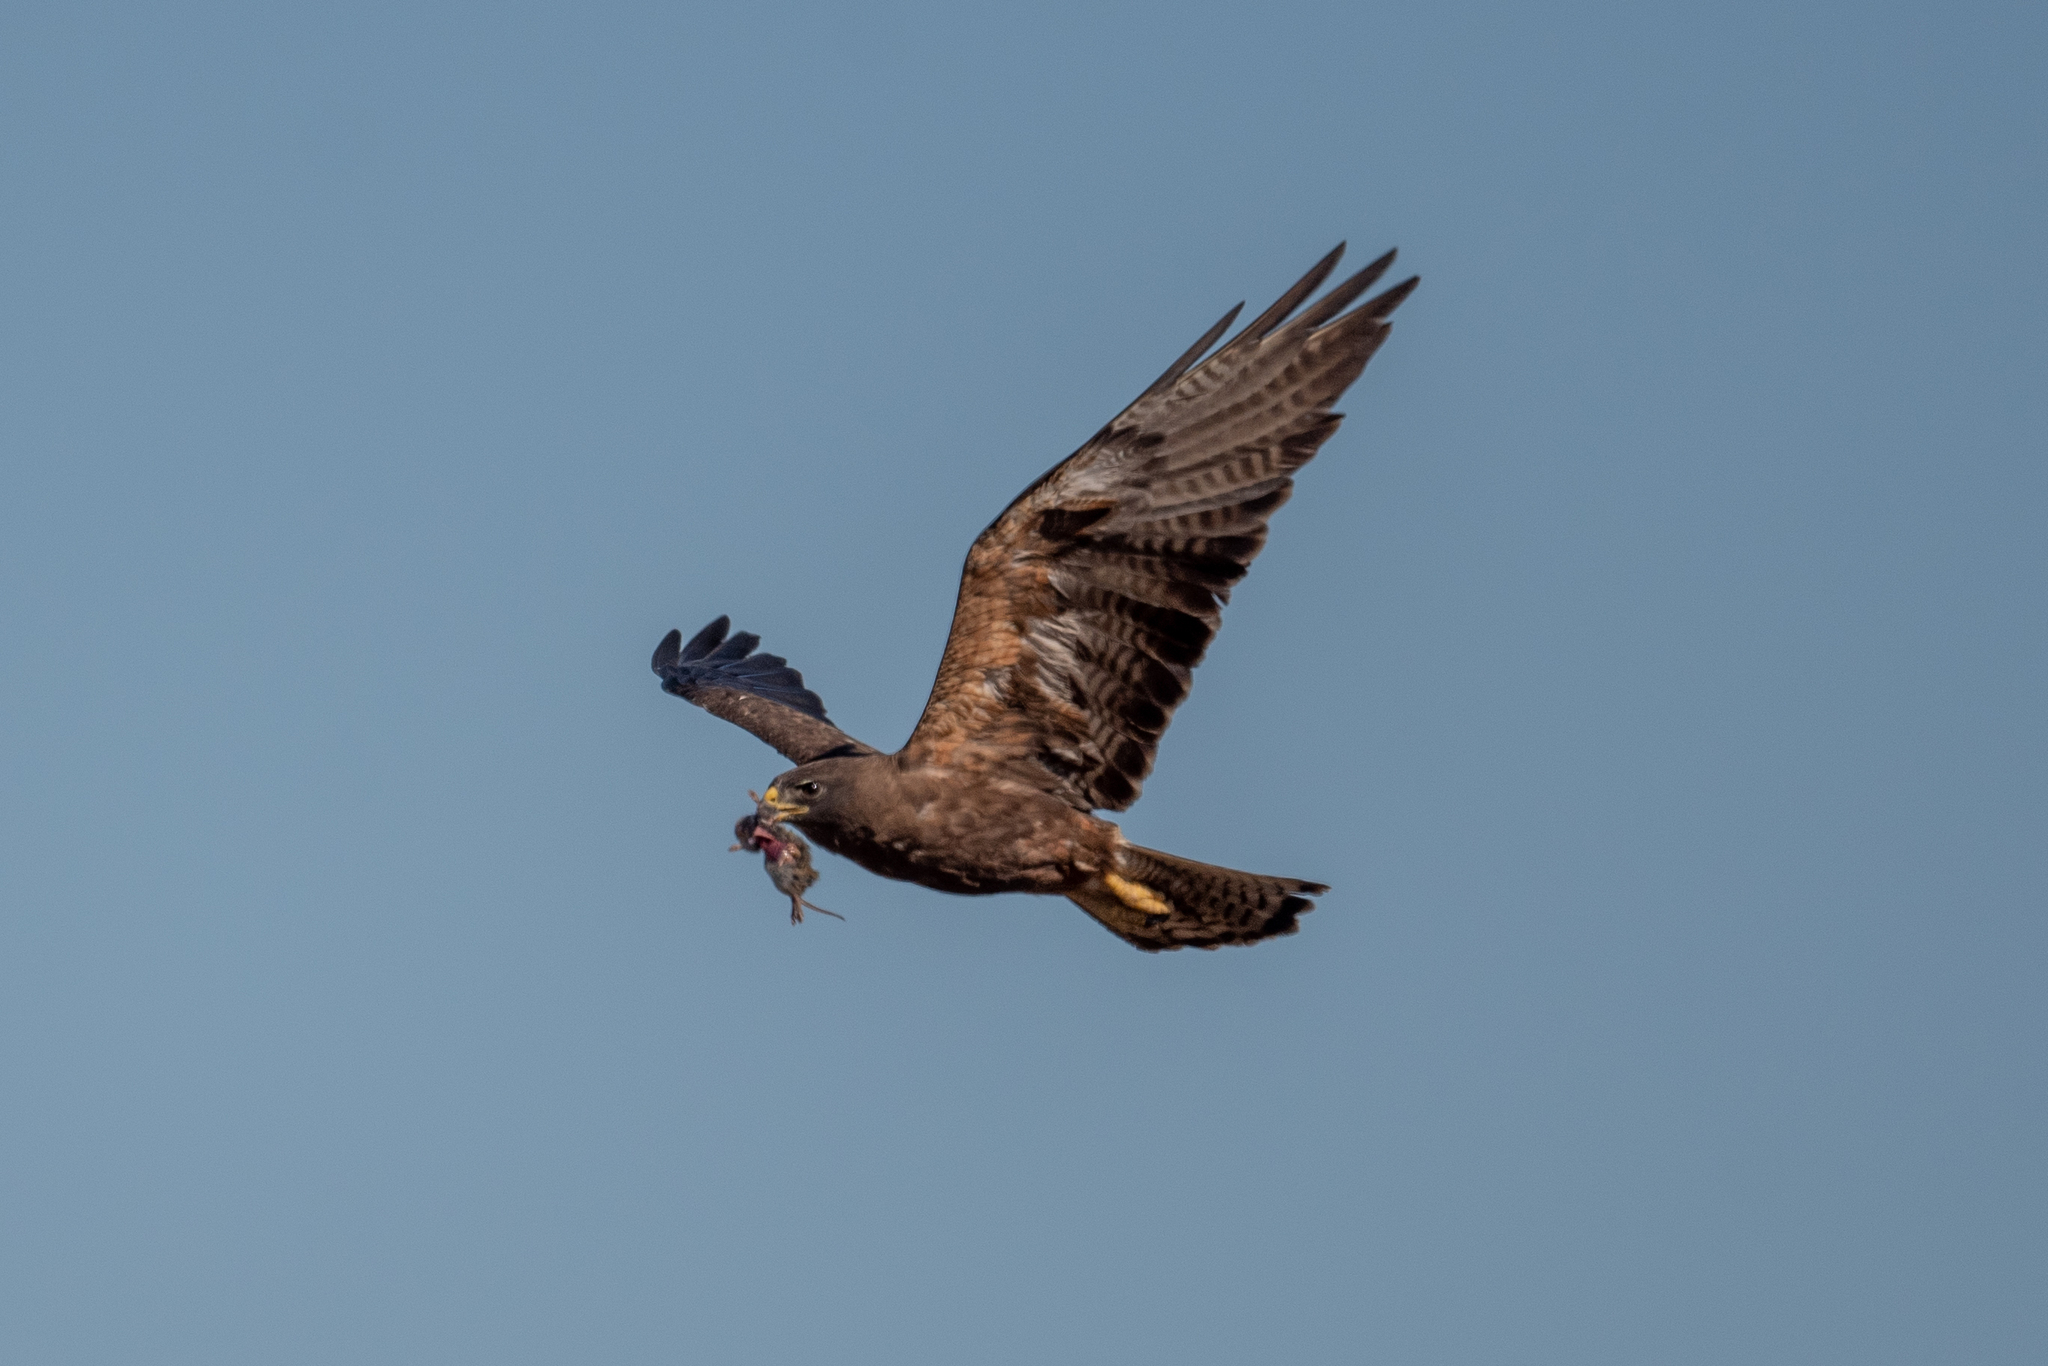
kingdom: Animalia
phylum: Chordata
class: Aves
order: Accipitriformes
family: Accipitridae
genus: Buteo
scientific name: Buteo swainsoni
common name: Swainson's hawk
